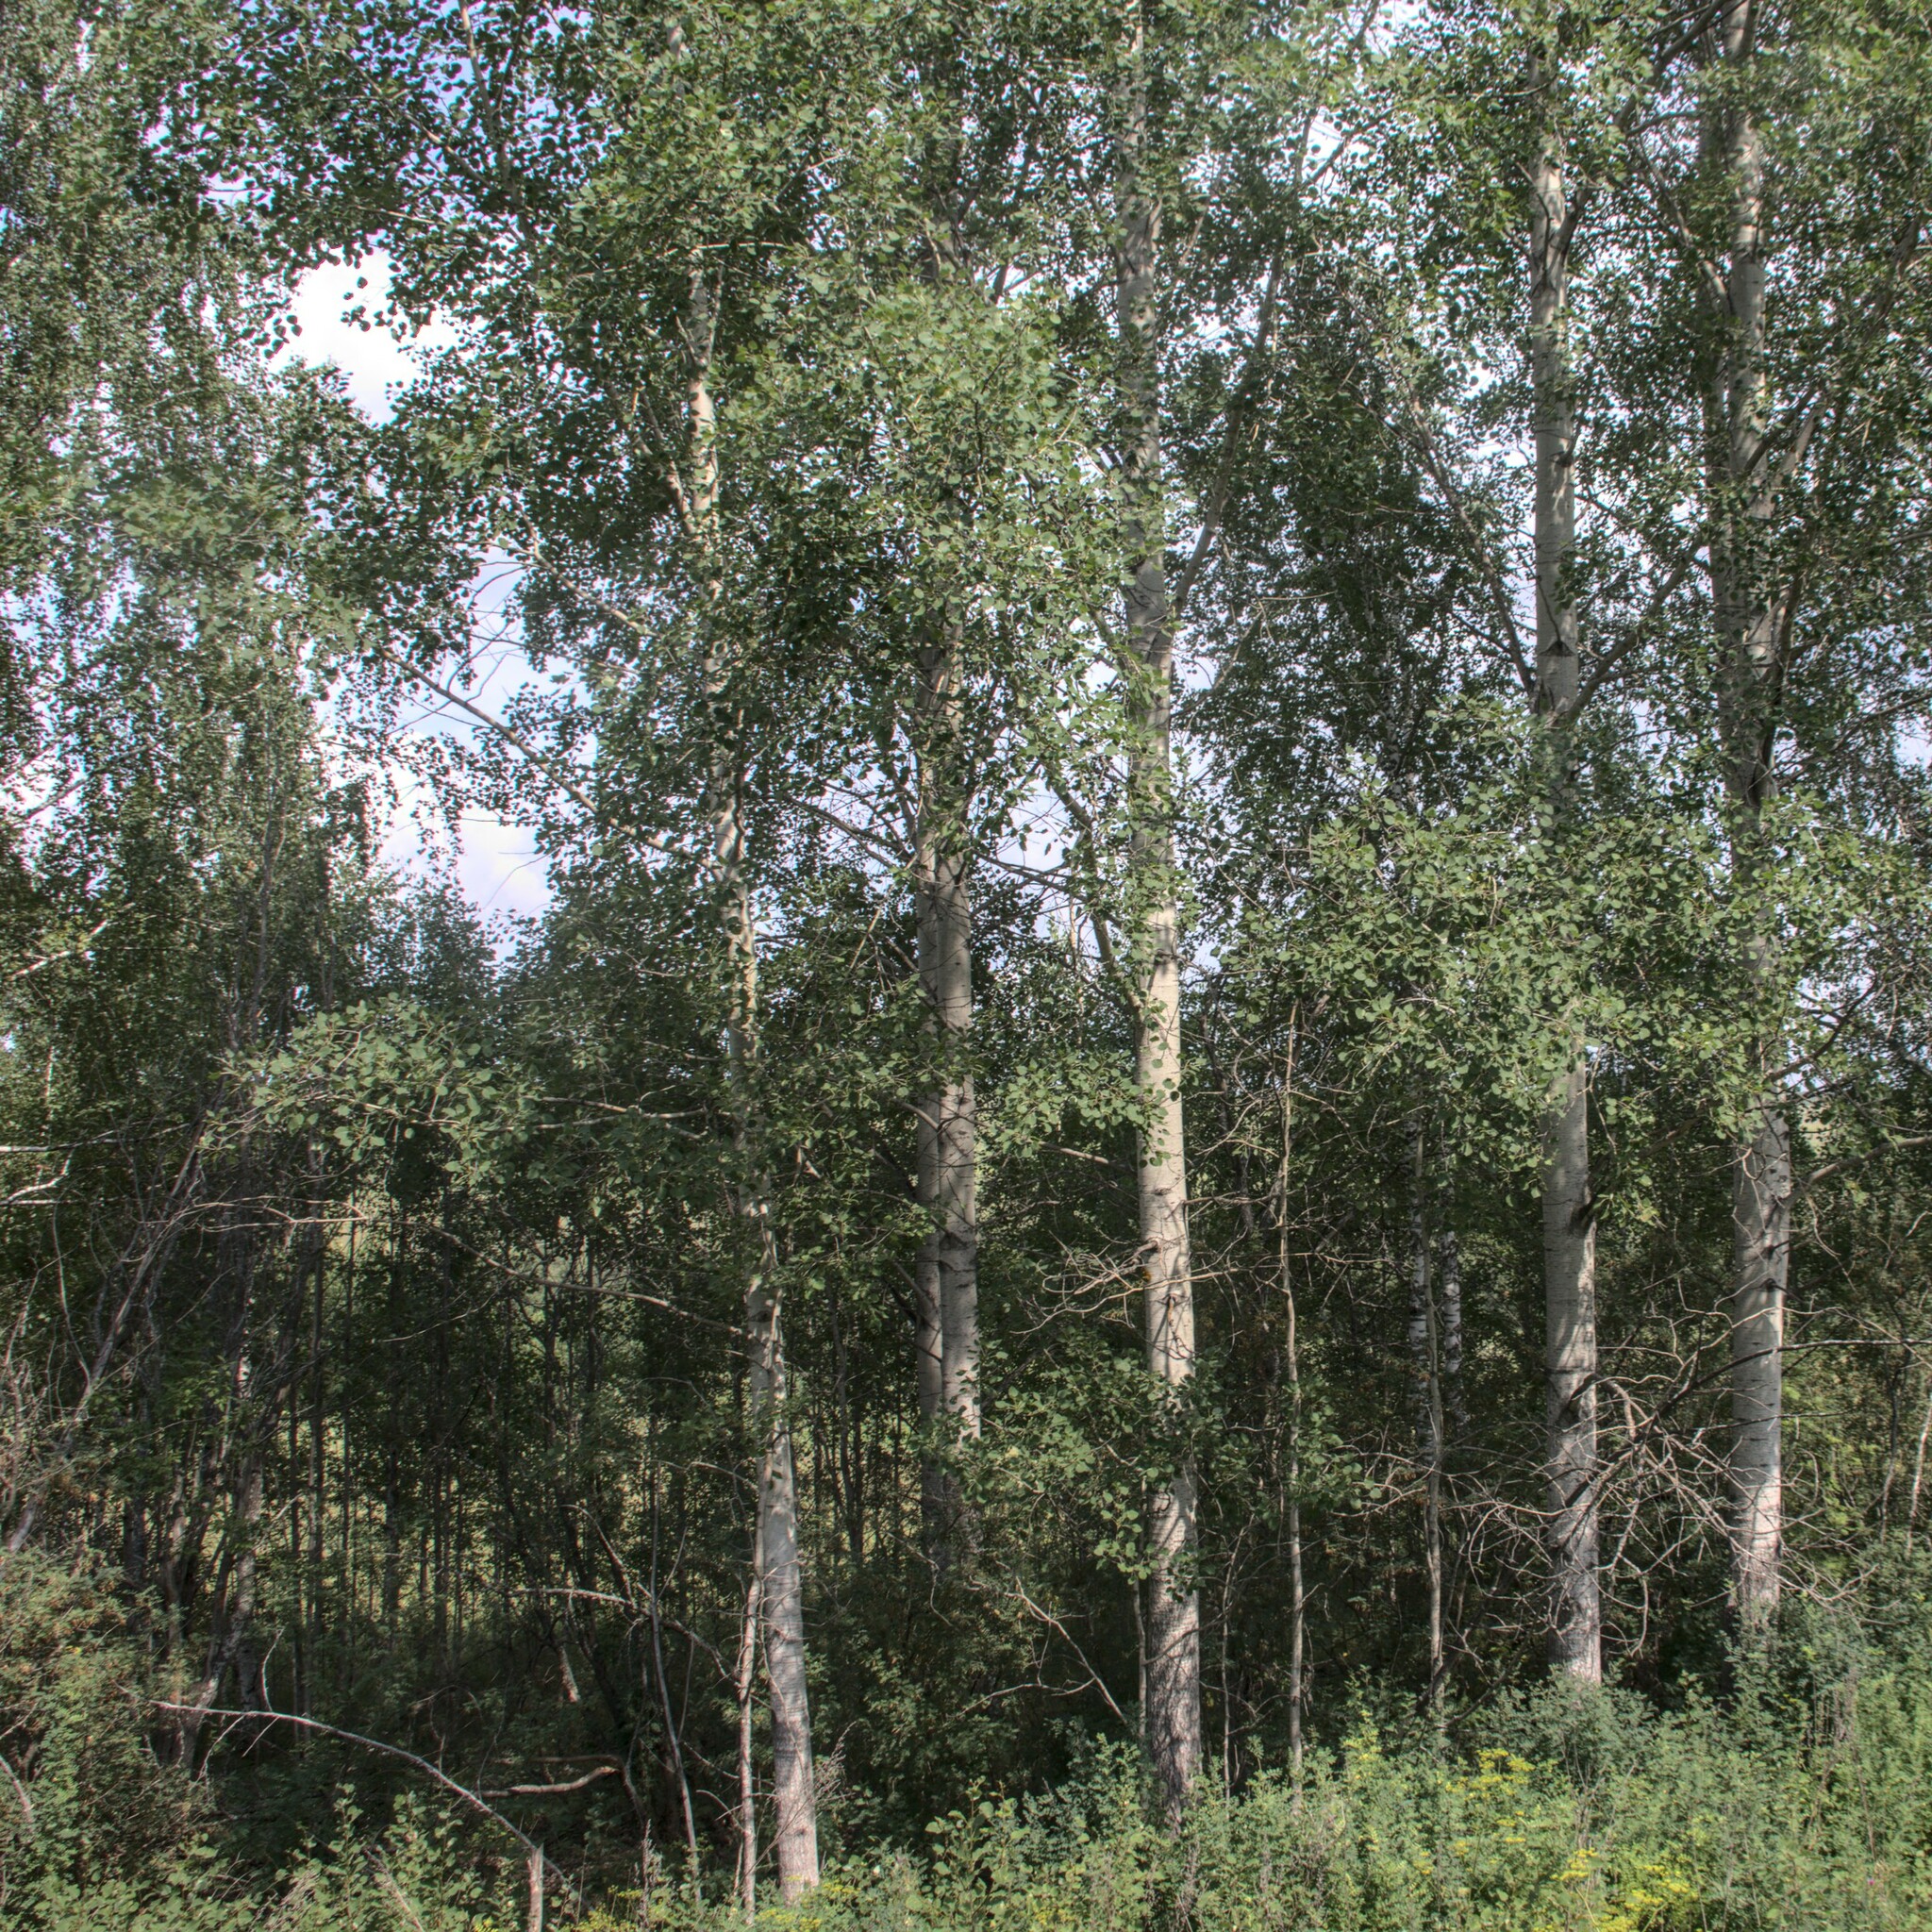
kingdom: Plantae
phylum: Tracheophyta
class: Magnoliopsida
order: Malpighiales
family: Salicaceae
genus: Populus
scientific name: Populus tremula
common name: European aspen
